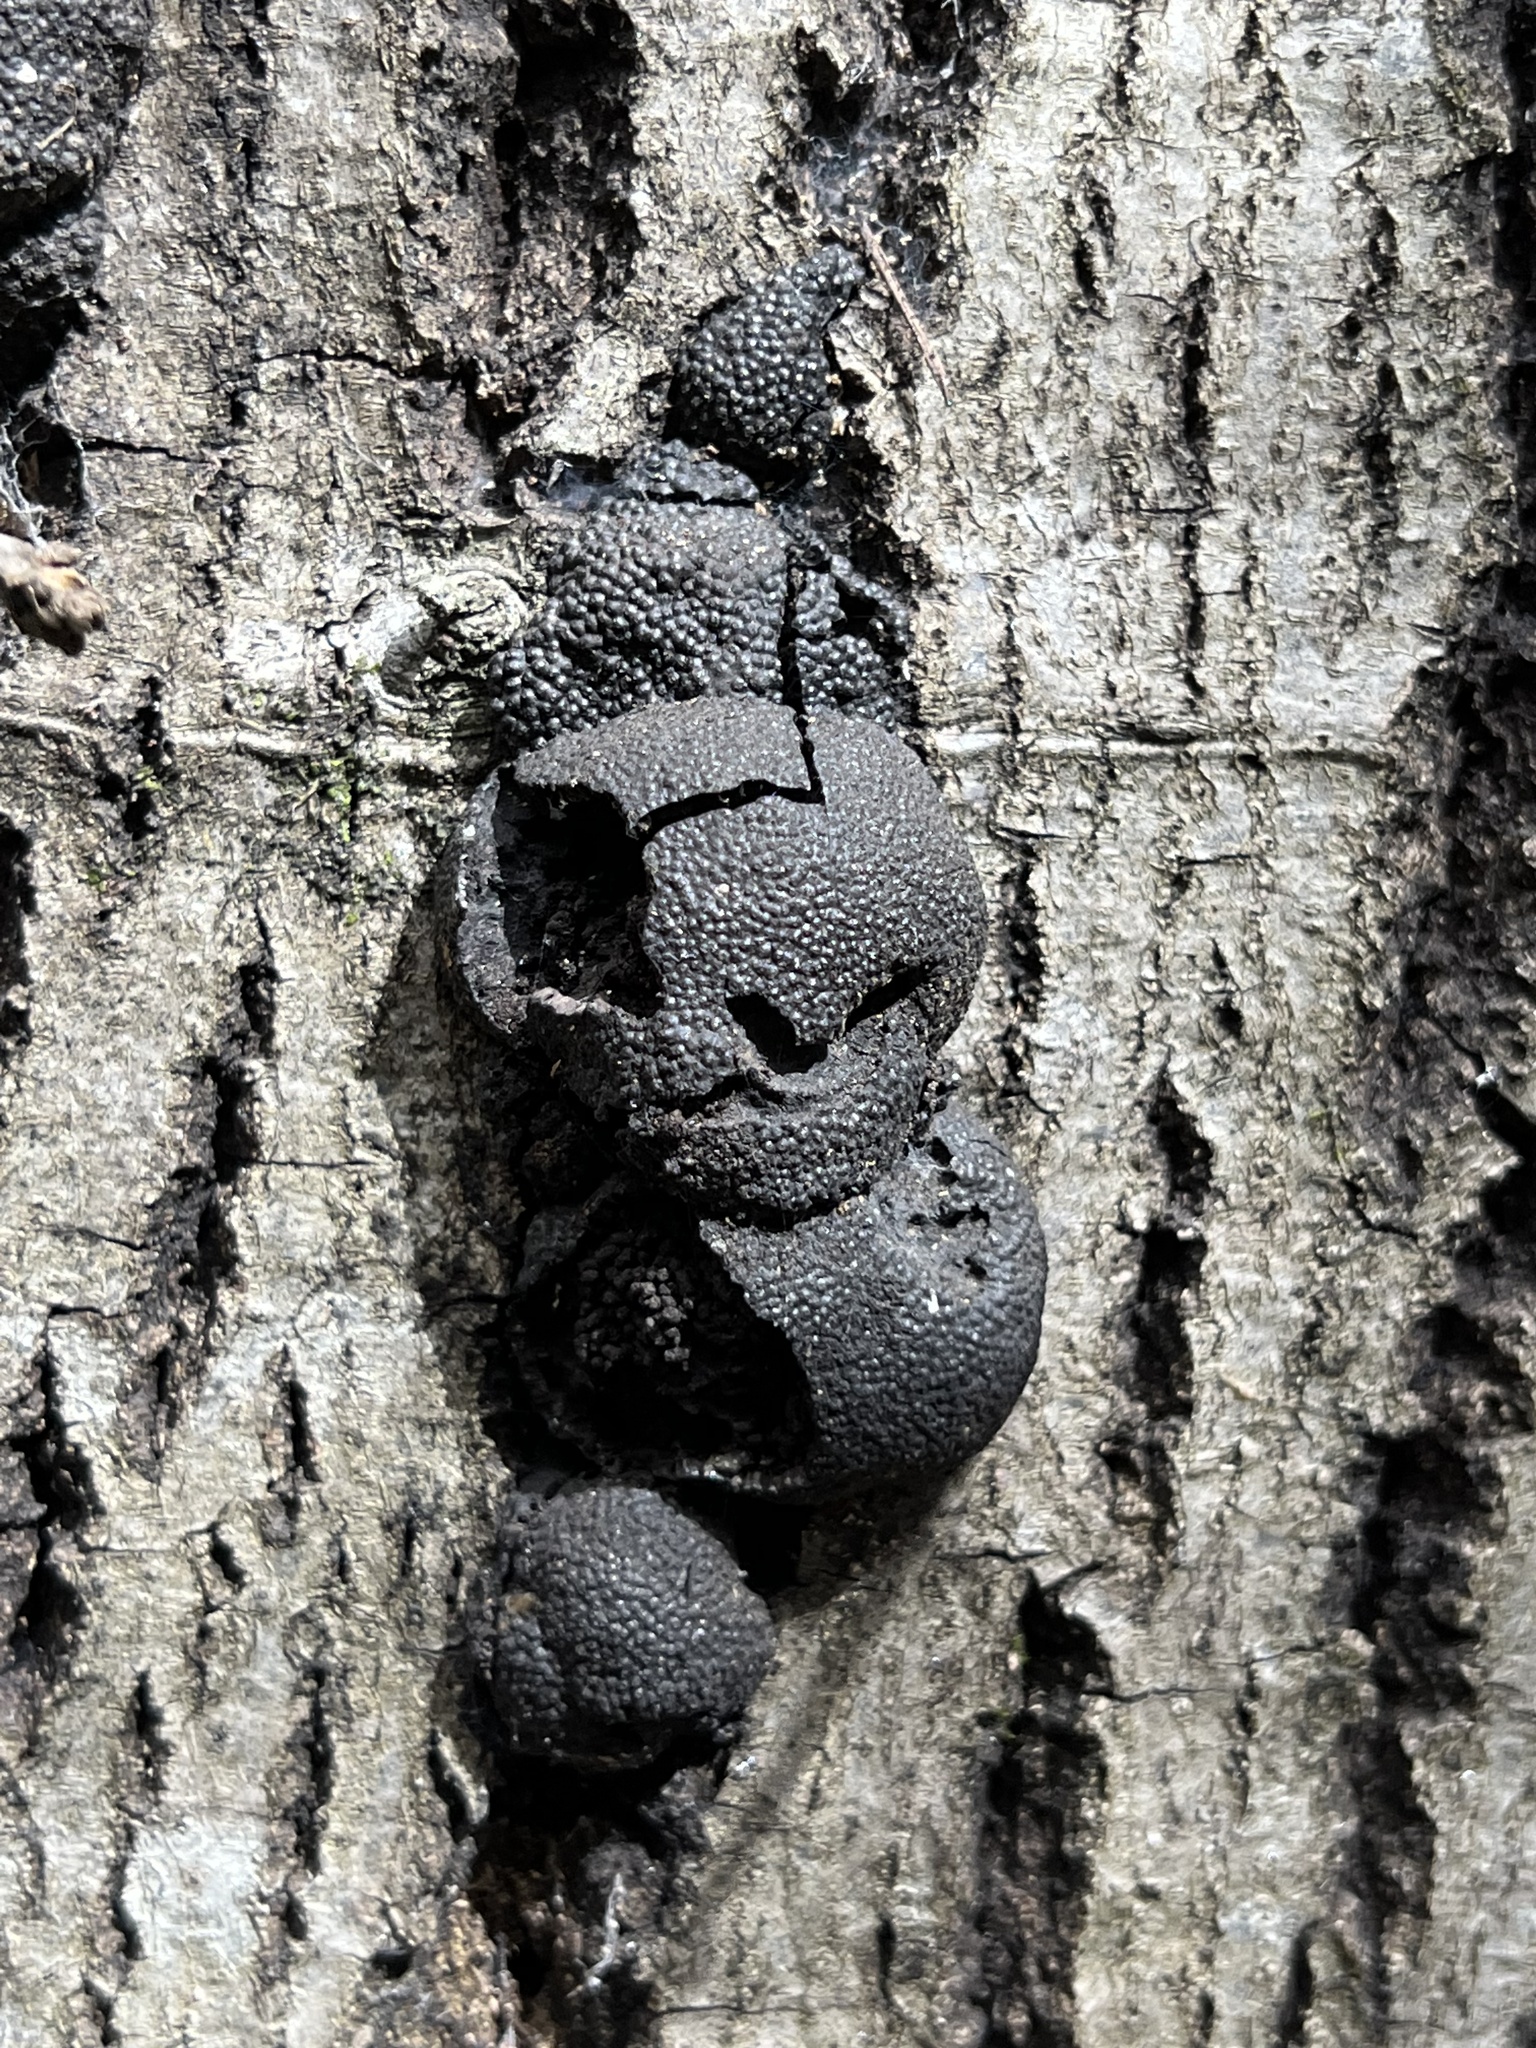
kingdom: Fungi
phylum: Ascomycota
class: Sordariomycetes
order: Xylariales
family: Hypoxylaceae
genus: Annulohypoxylon
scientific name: Annulohypoxylon thouarsianum
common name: Cramp balls
